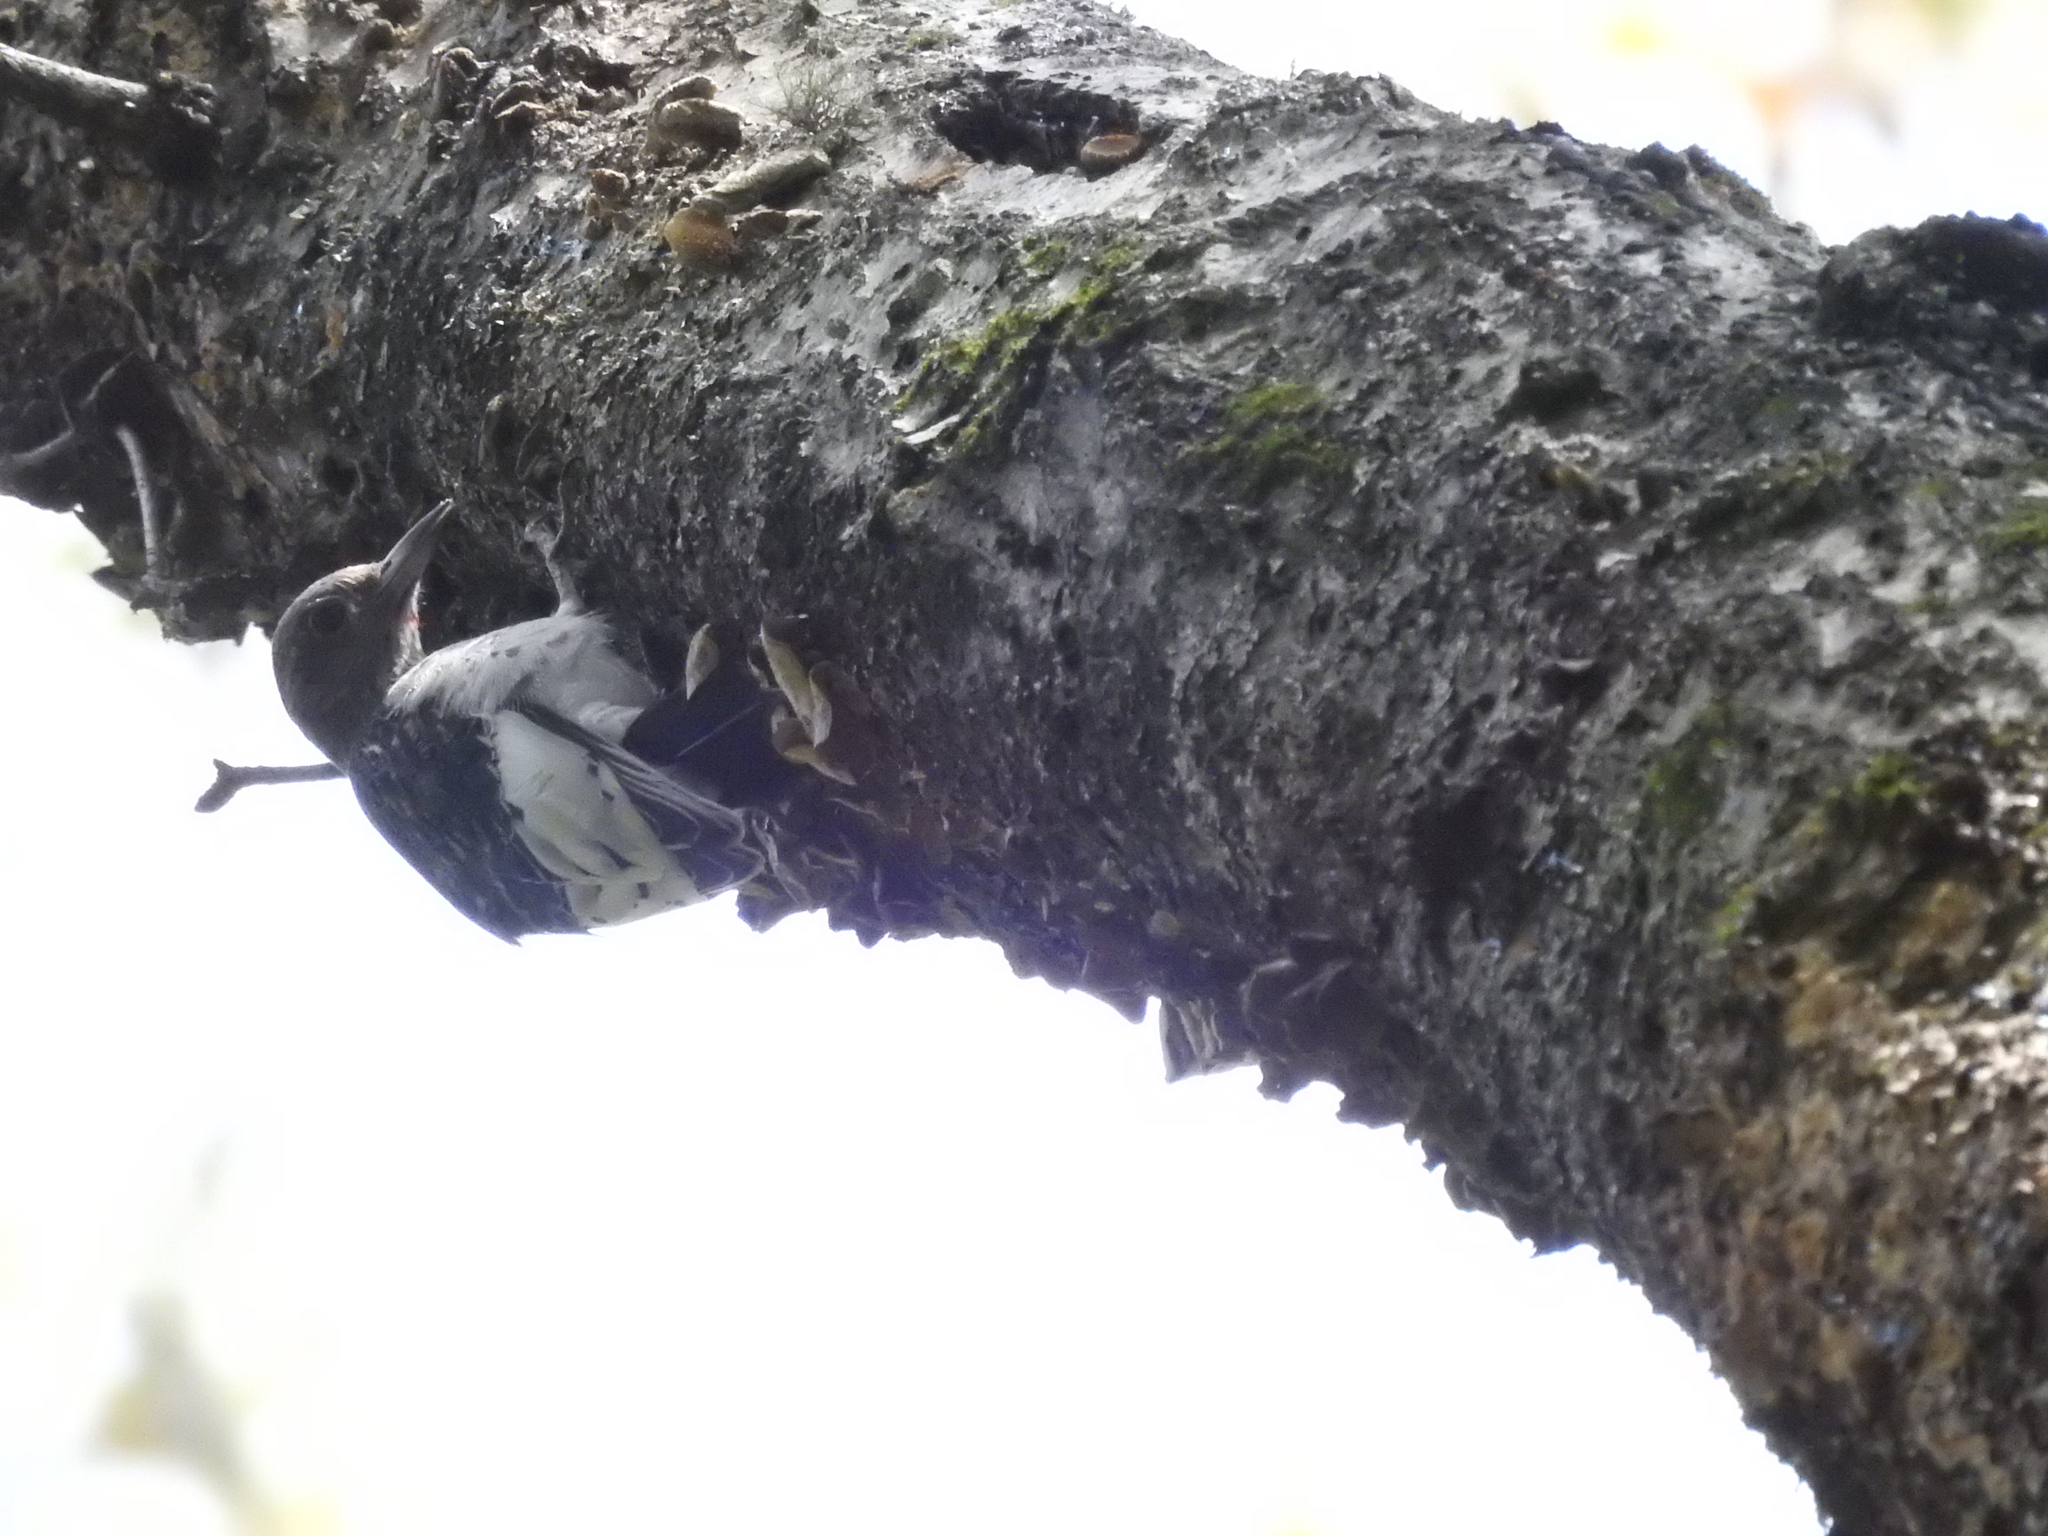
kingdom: Animalia
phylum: Chordata
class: Aves
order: Piciformes
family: Picidae
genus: Melanerpes
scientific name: Melanerpes erythrocephalus
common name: Red-headed woodpecker
